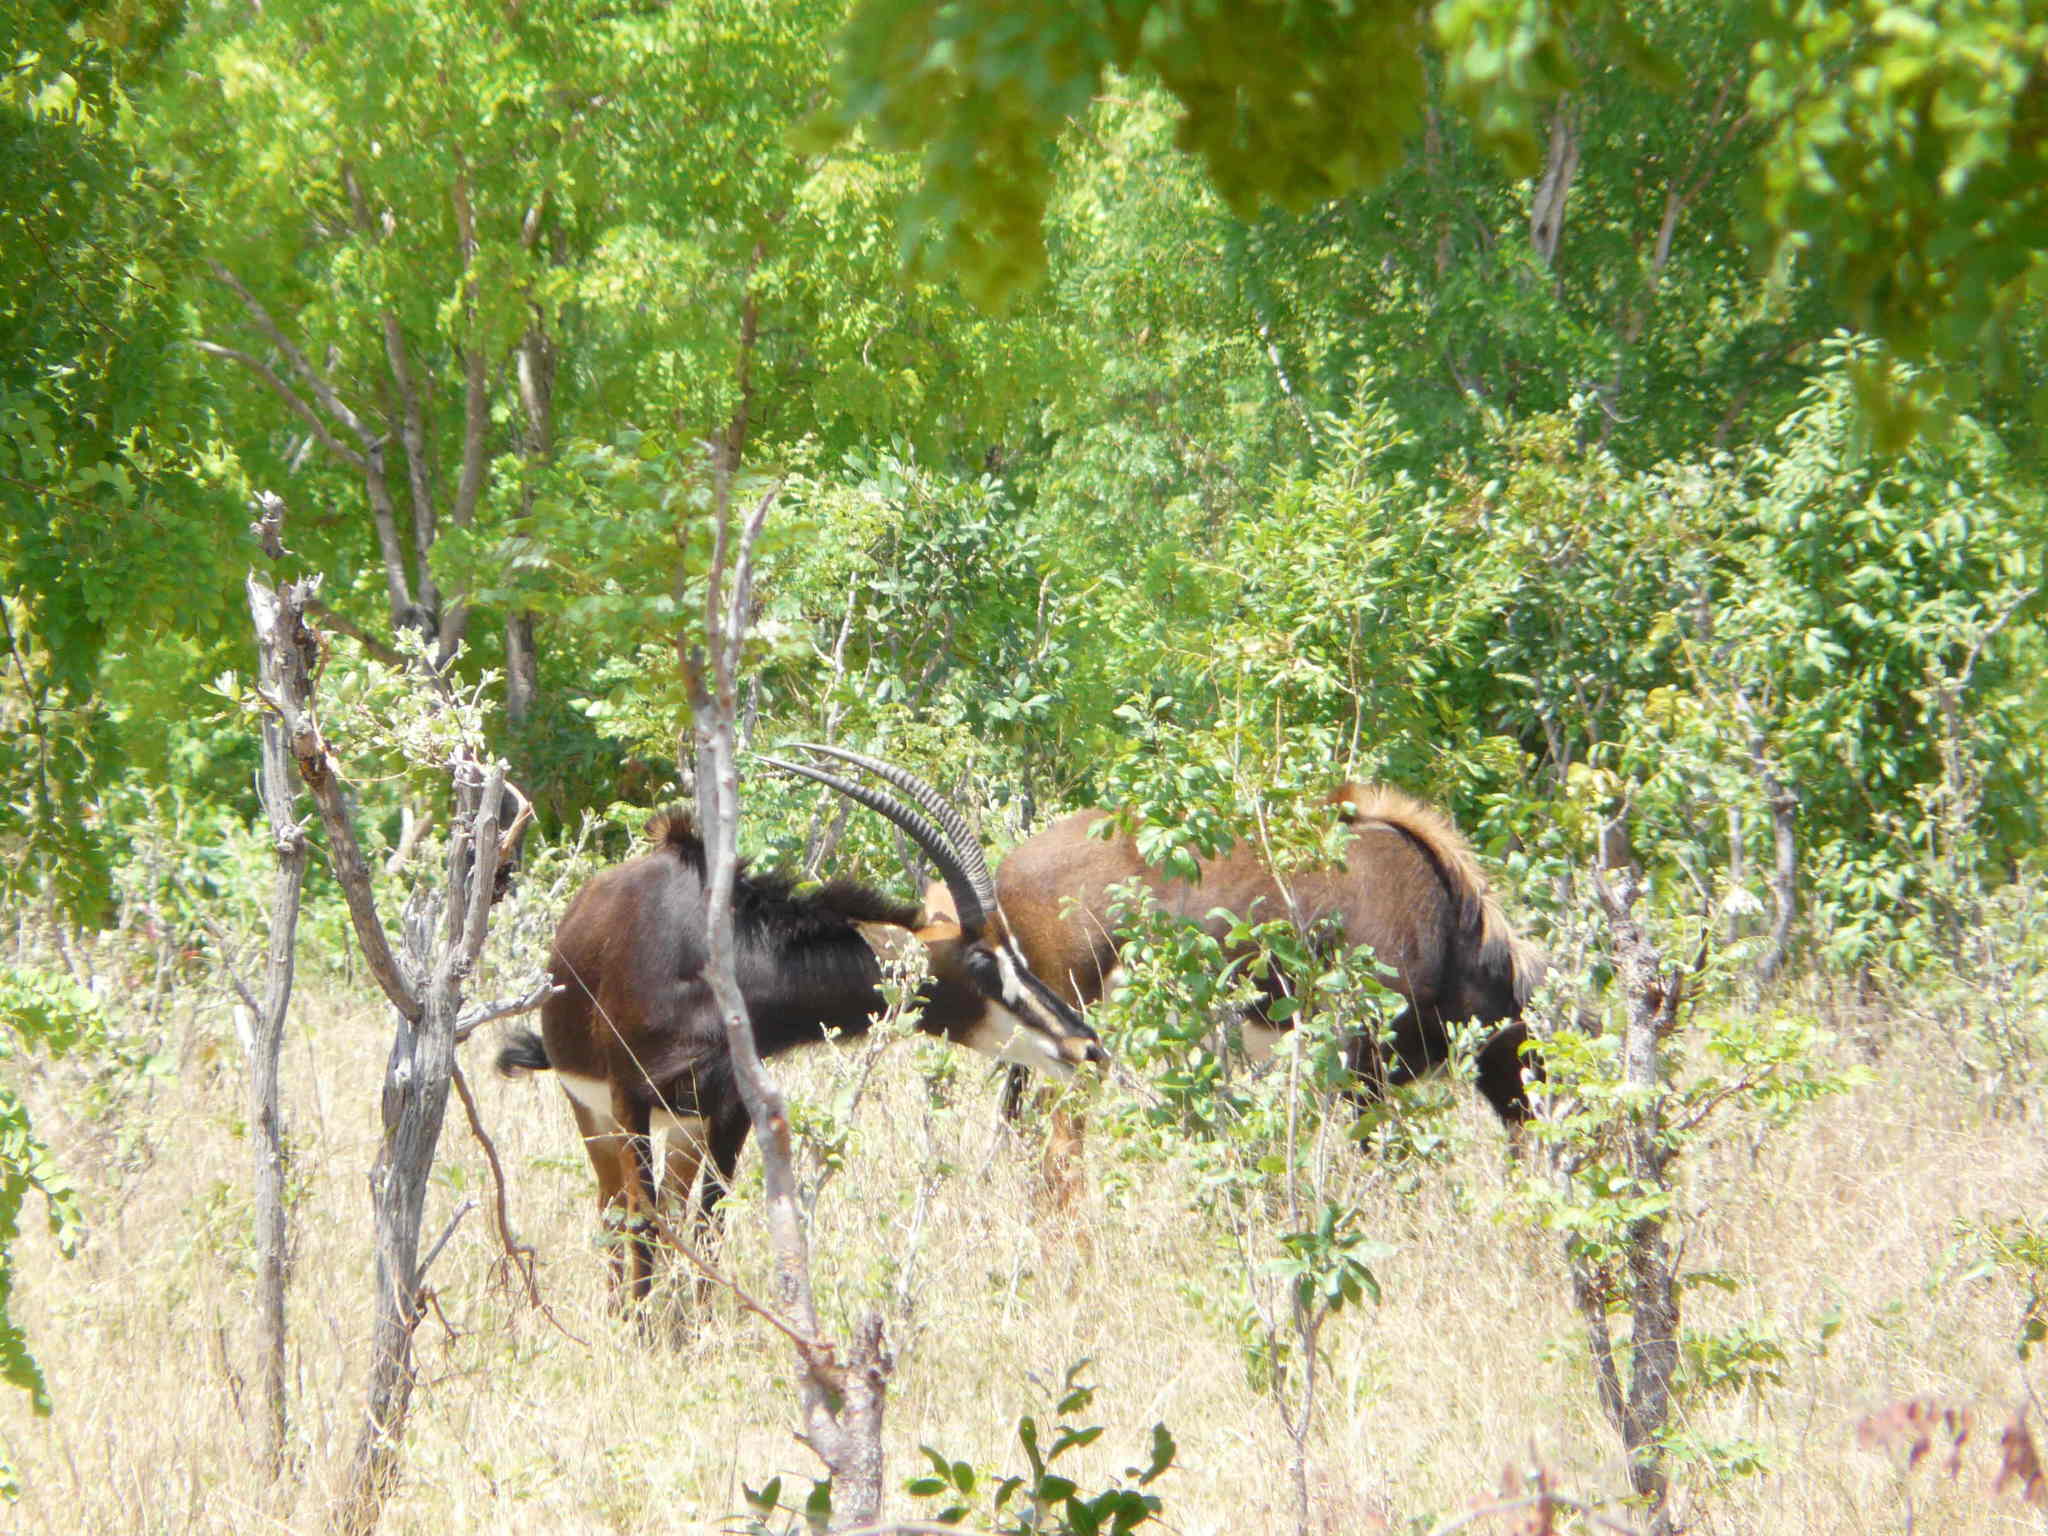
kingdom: Animalia
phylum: Chordata
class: Mammalia
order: Artiodactyla
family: Bovidae
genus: Hippotragus
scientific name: Hippotragus niger
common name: Sable antelope
